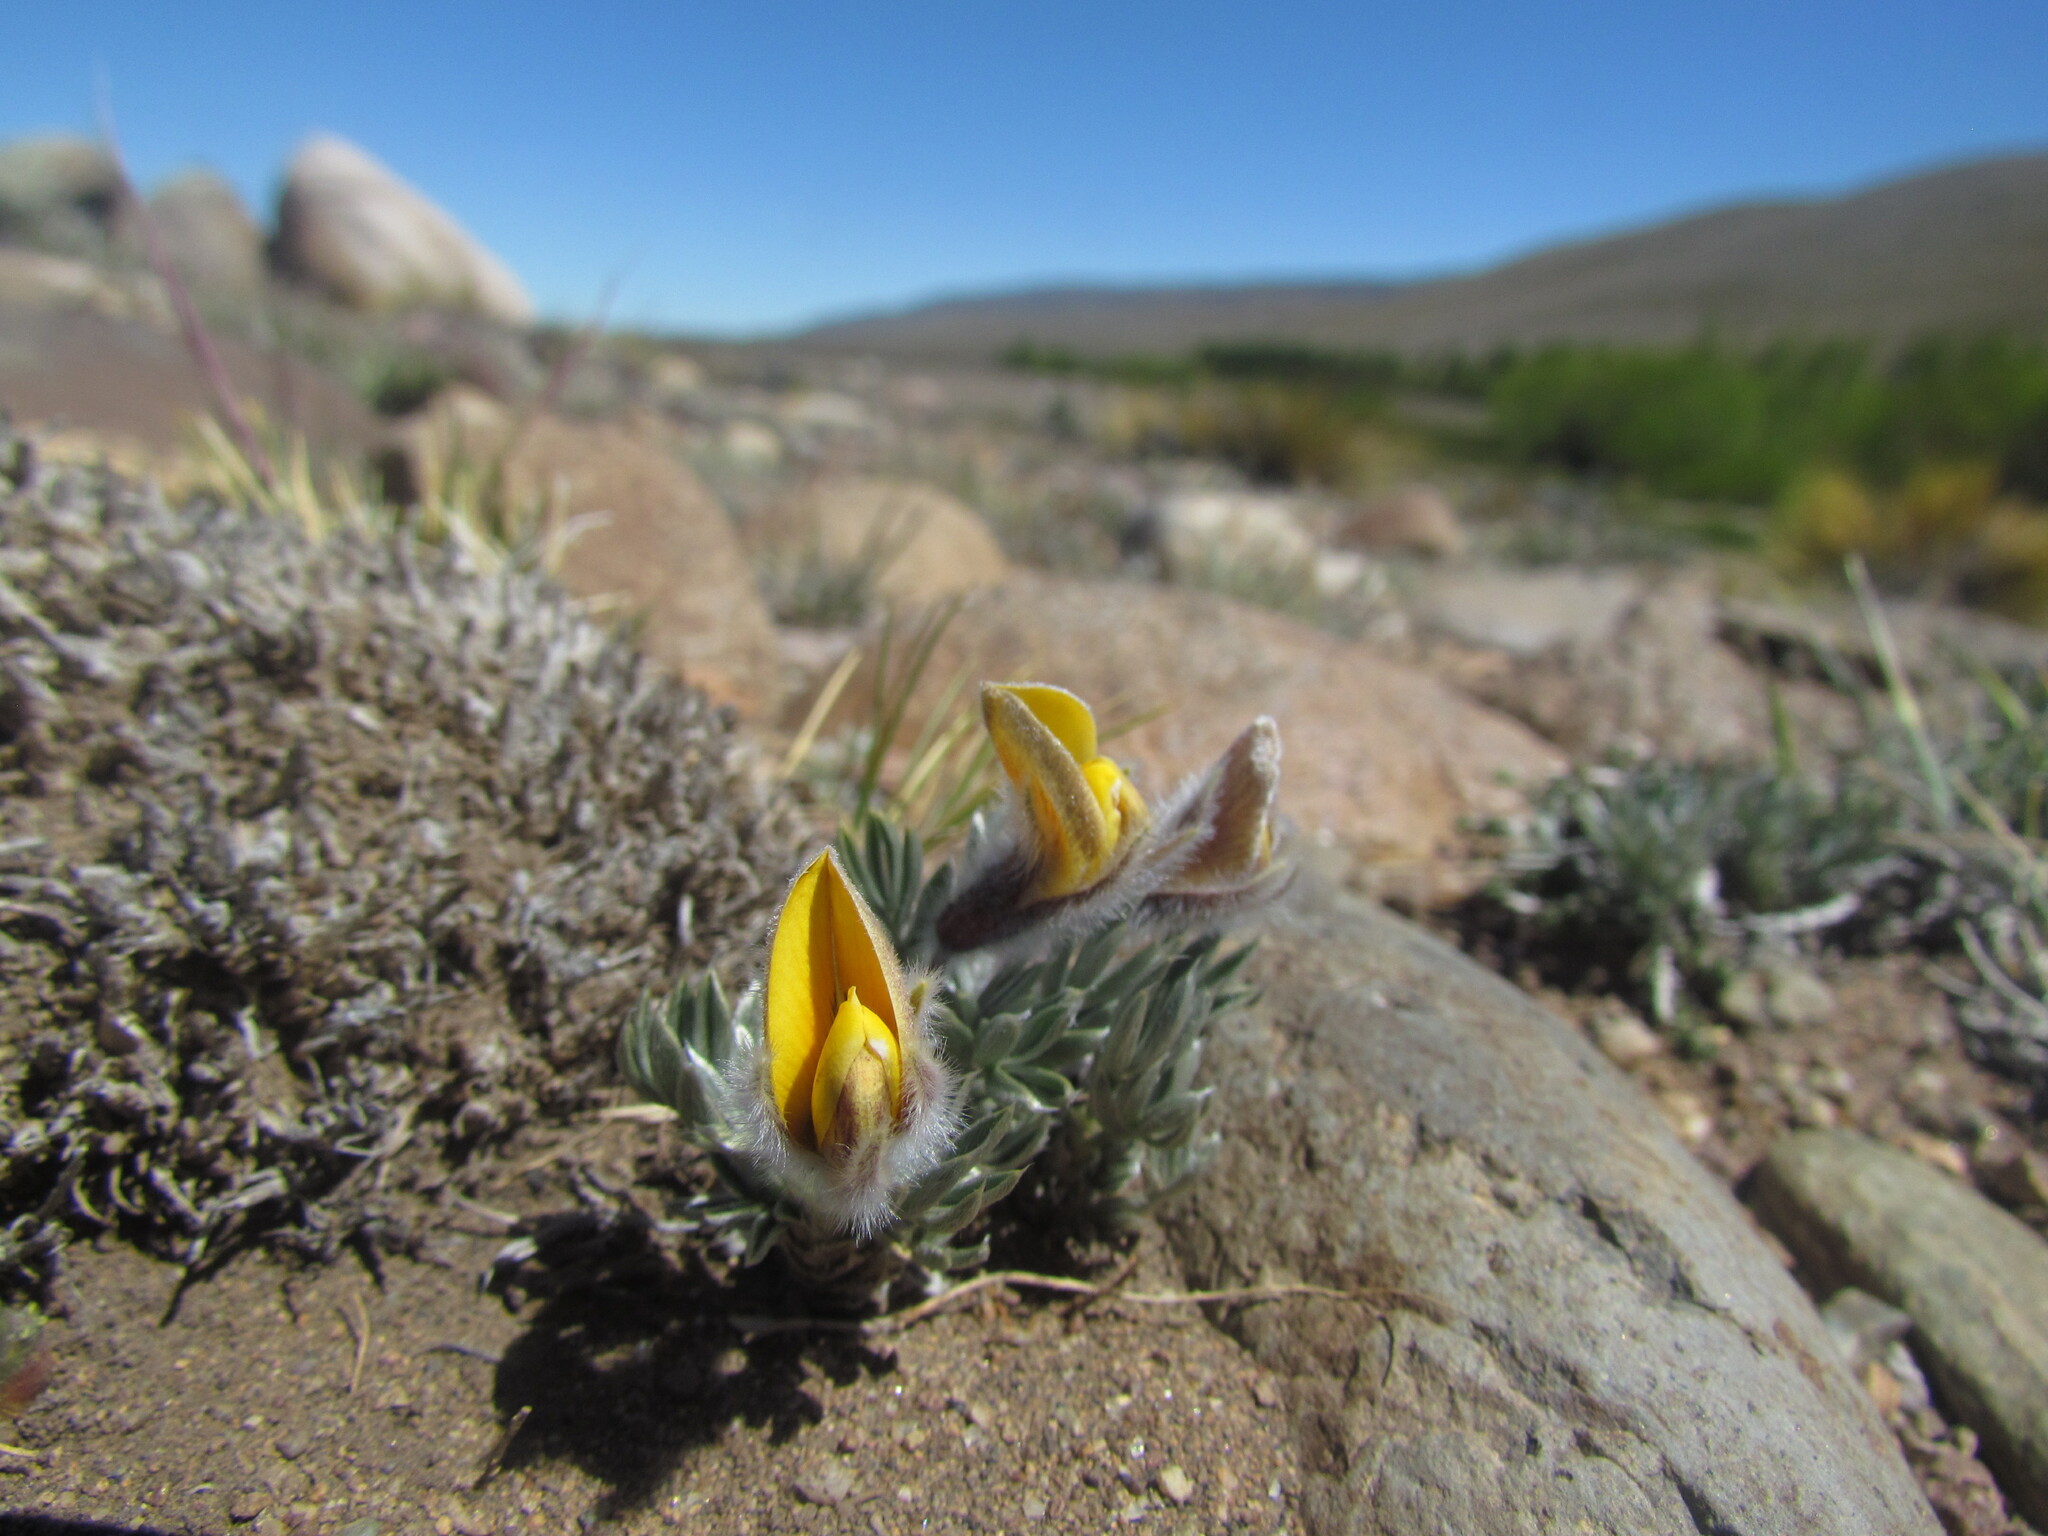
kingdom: Plantae
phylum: Tracheophyta
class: Magnoliopsida
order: Fabales
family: Fabaceae
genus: Adesmia
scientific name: Adesmia villosa
